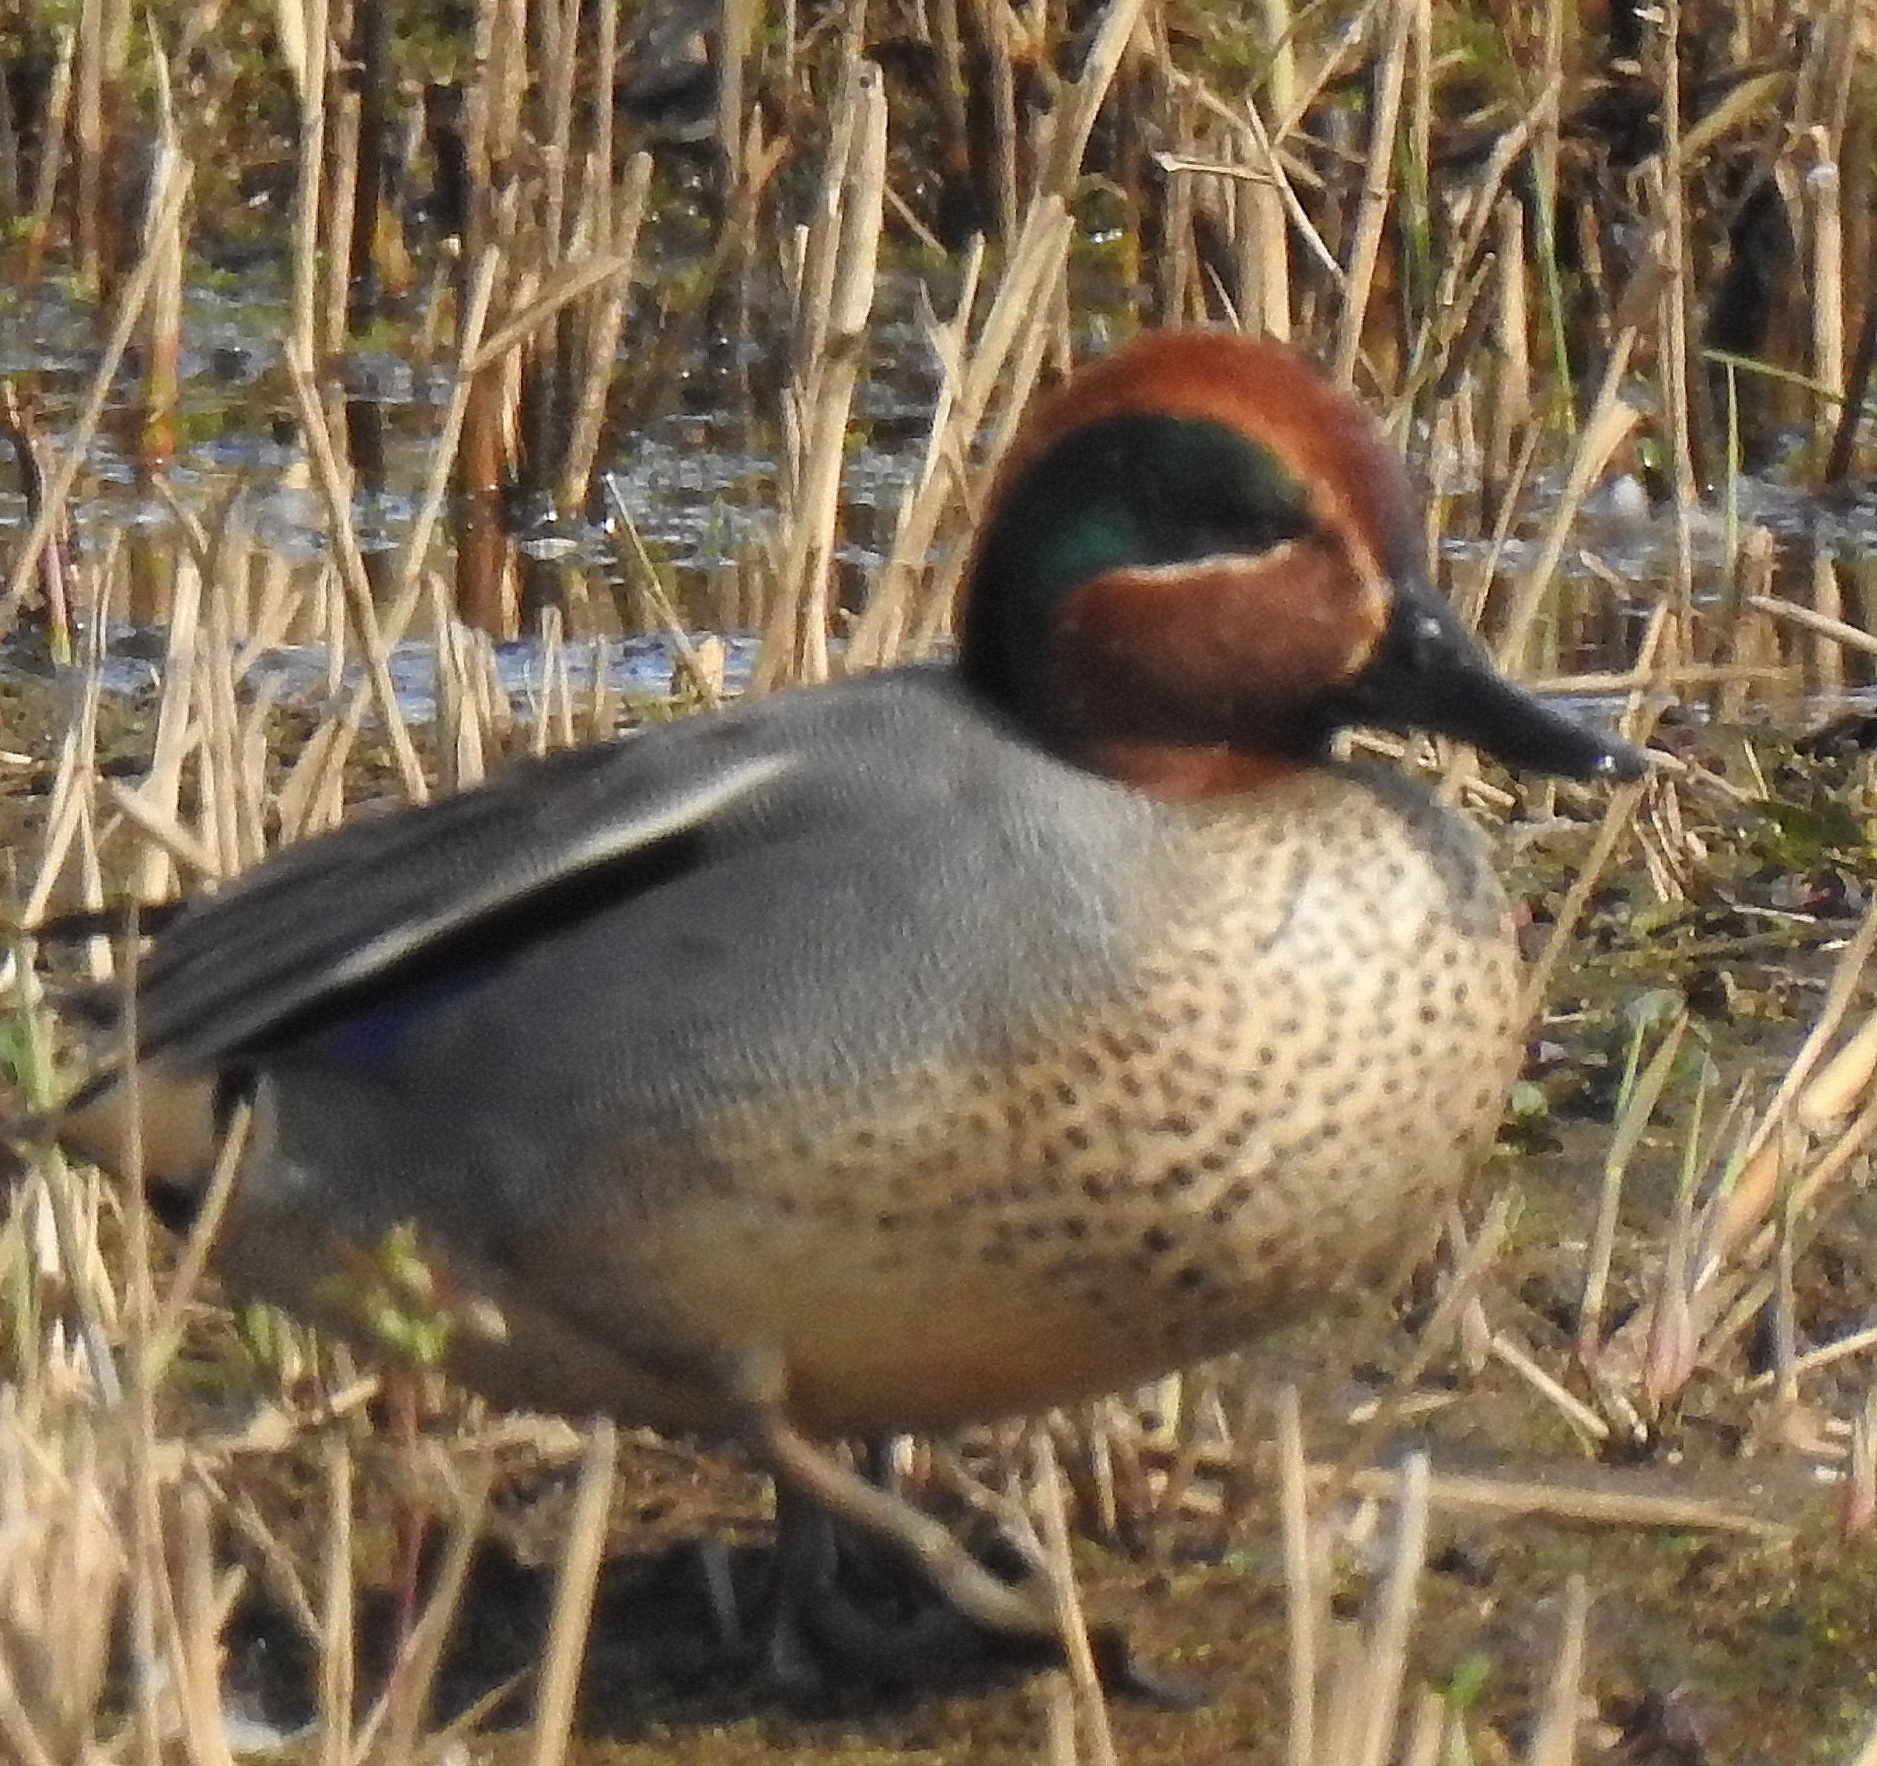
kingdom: Animalia
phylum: Chordata
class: Aves
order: Anseriformes
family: Anatidae
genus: Anas
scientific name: Anas crecca
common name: Eurasian teal
